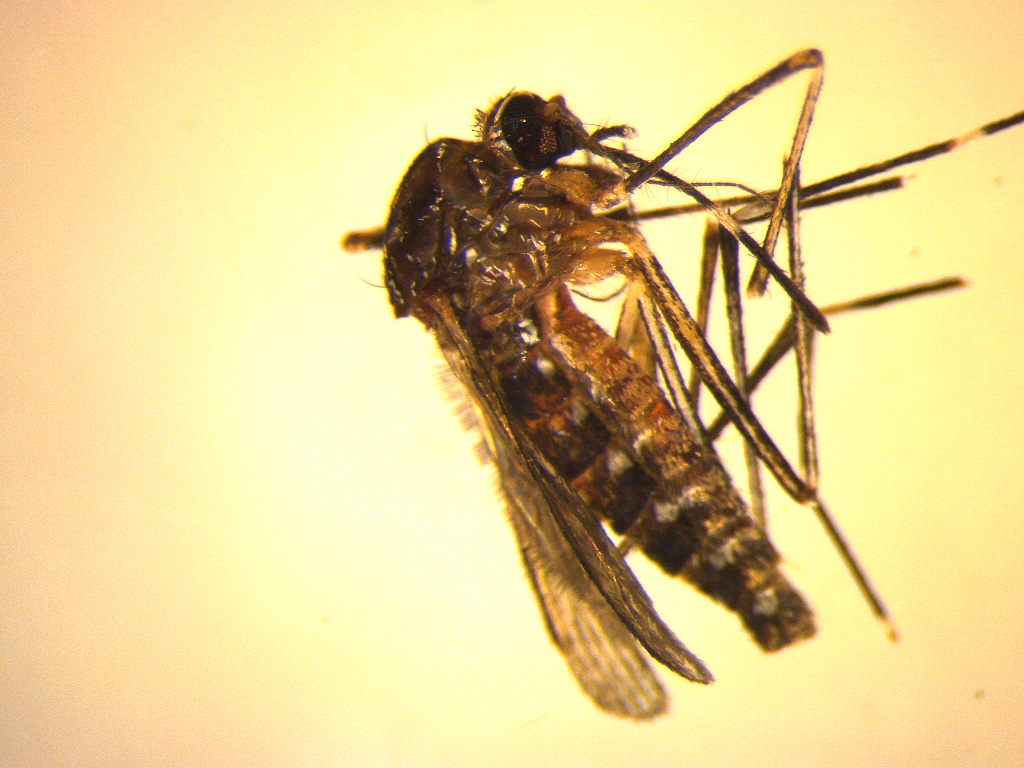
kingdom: Animalia
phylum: Arthropoda
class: Insecta
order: Diptera
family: Culicidae
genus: Aedes
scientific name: Aedes notoscriptus
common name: Australian backyard mosquito
